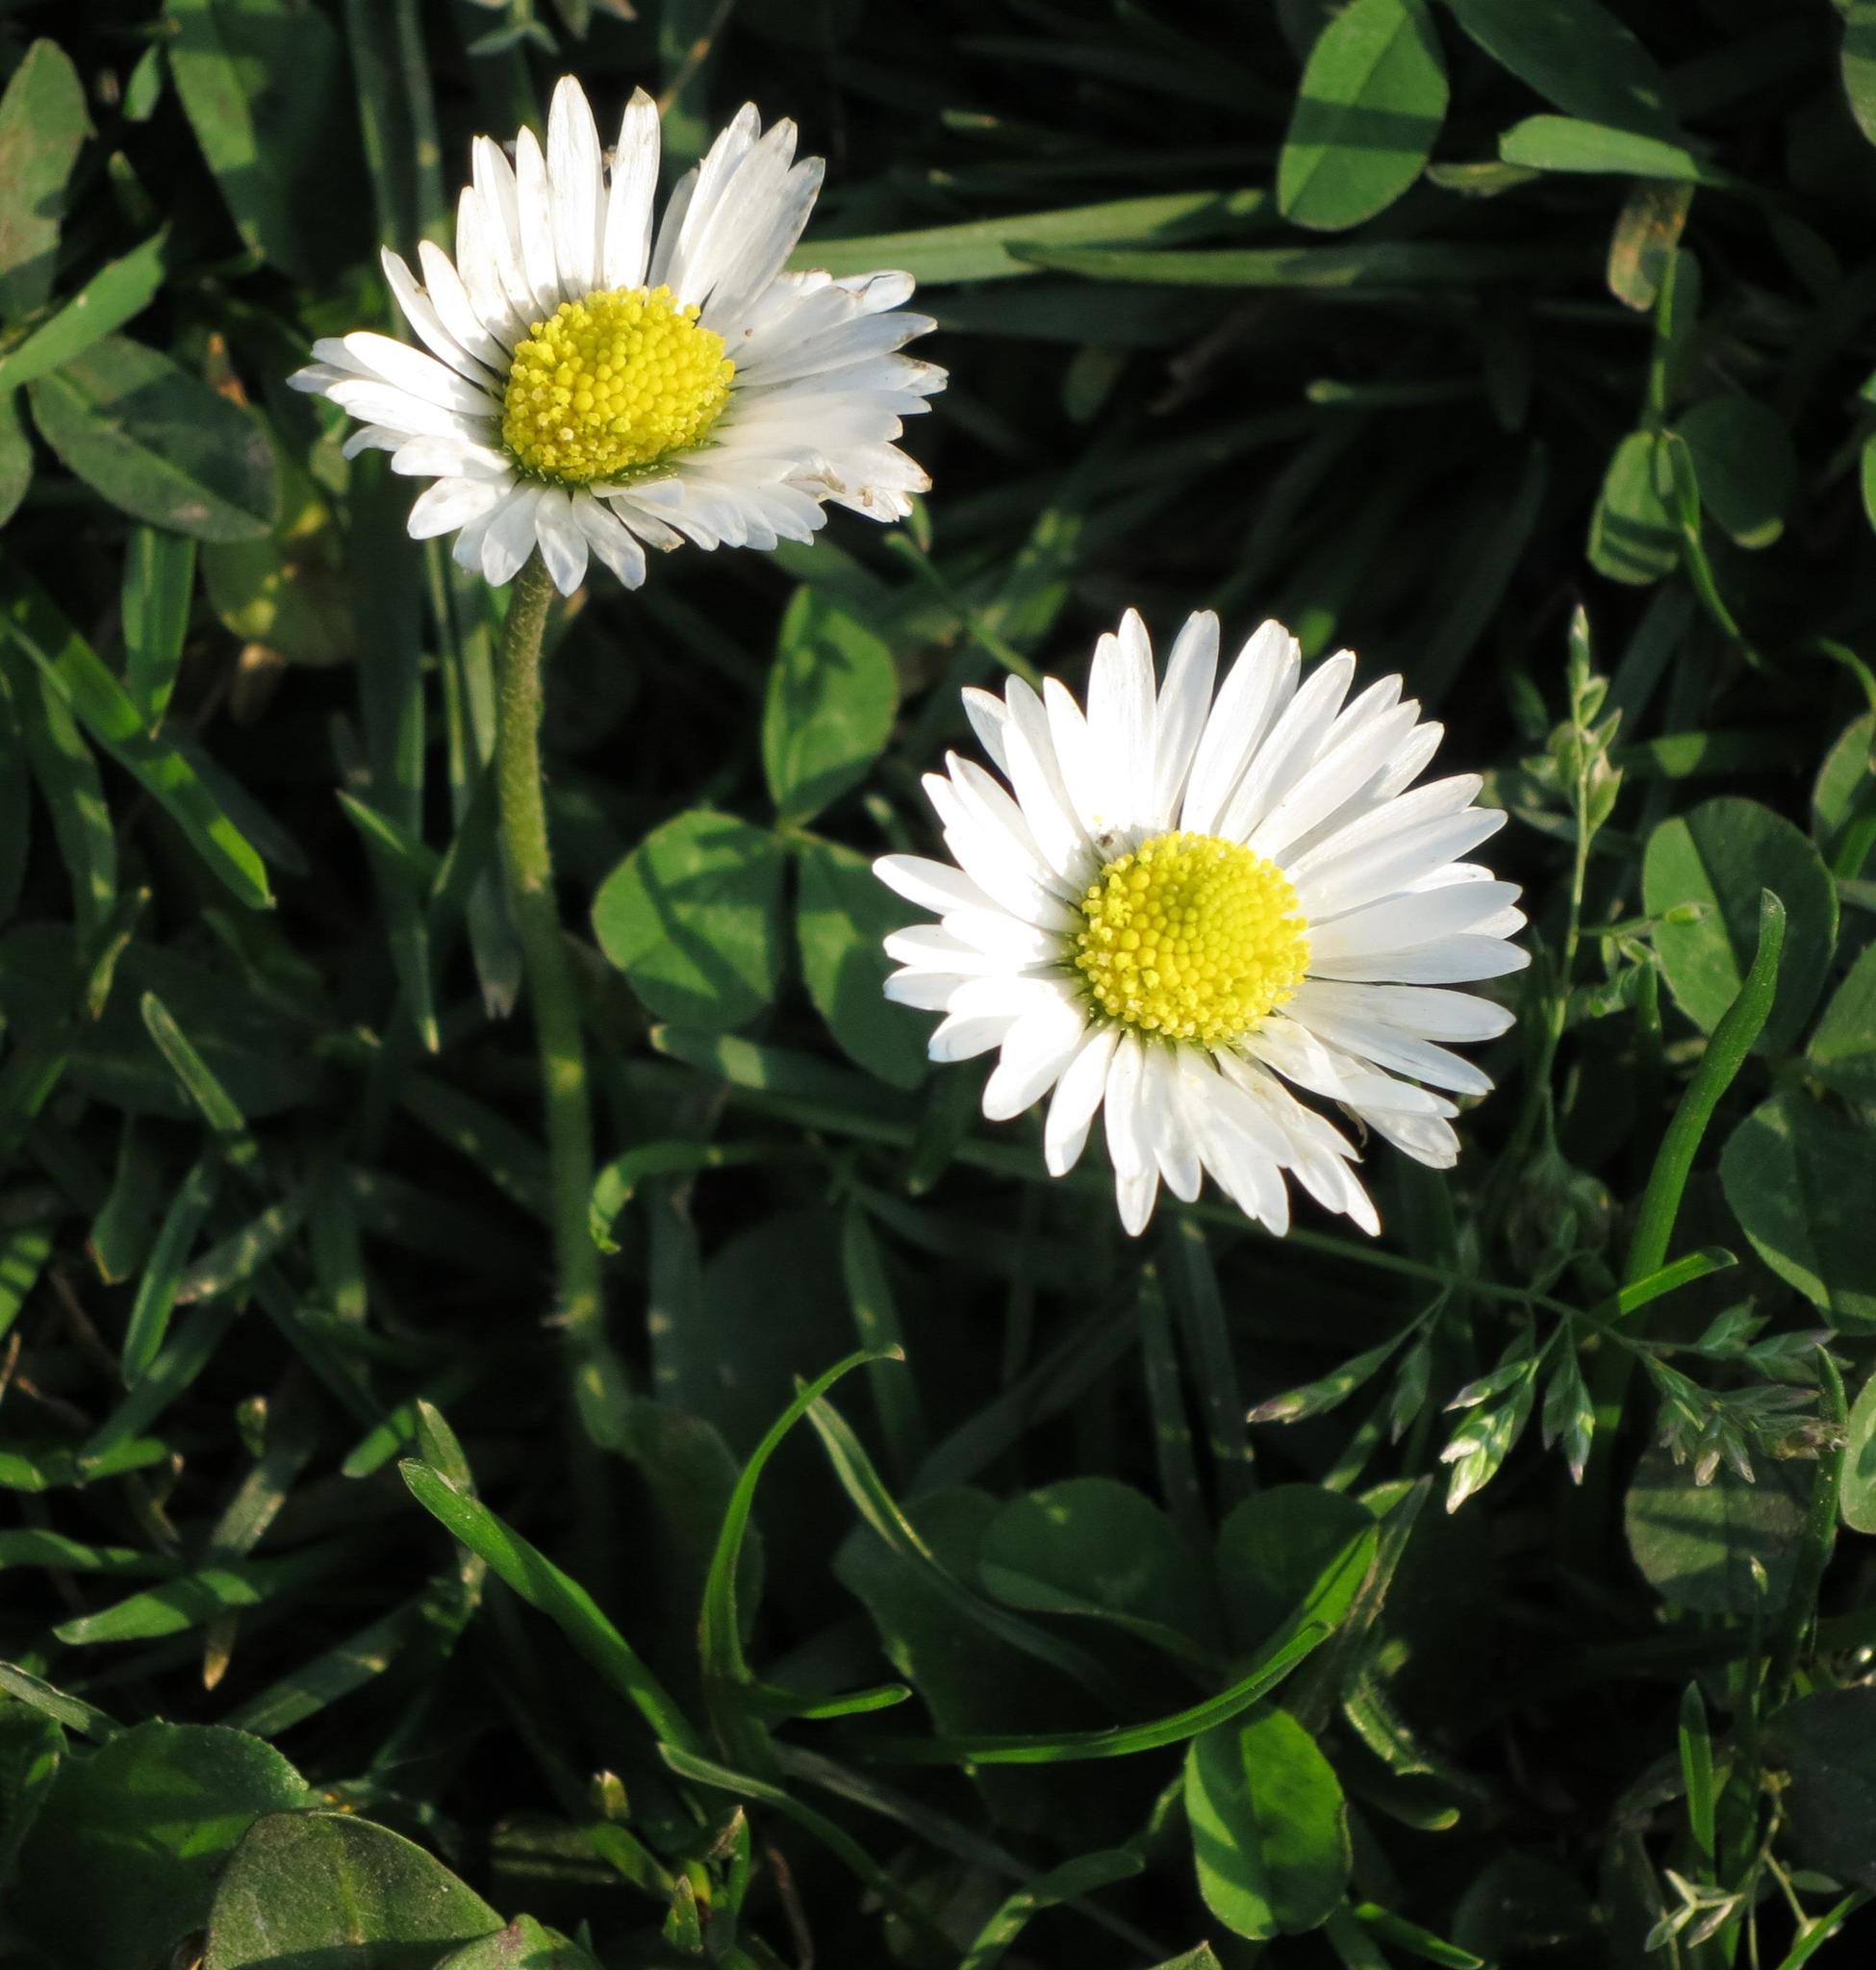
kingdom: Plantae
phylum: Tracheophyta
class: Magnoliopsida
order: Asterales
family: Asteraceae
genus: Bellis
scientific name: Bellis perennis
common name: Lawndaisy
